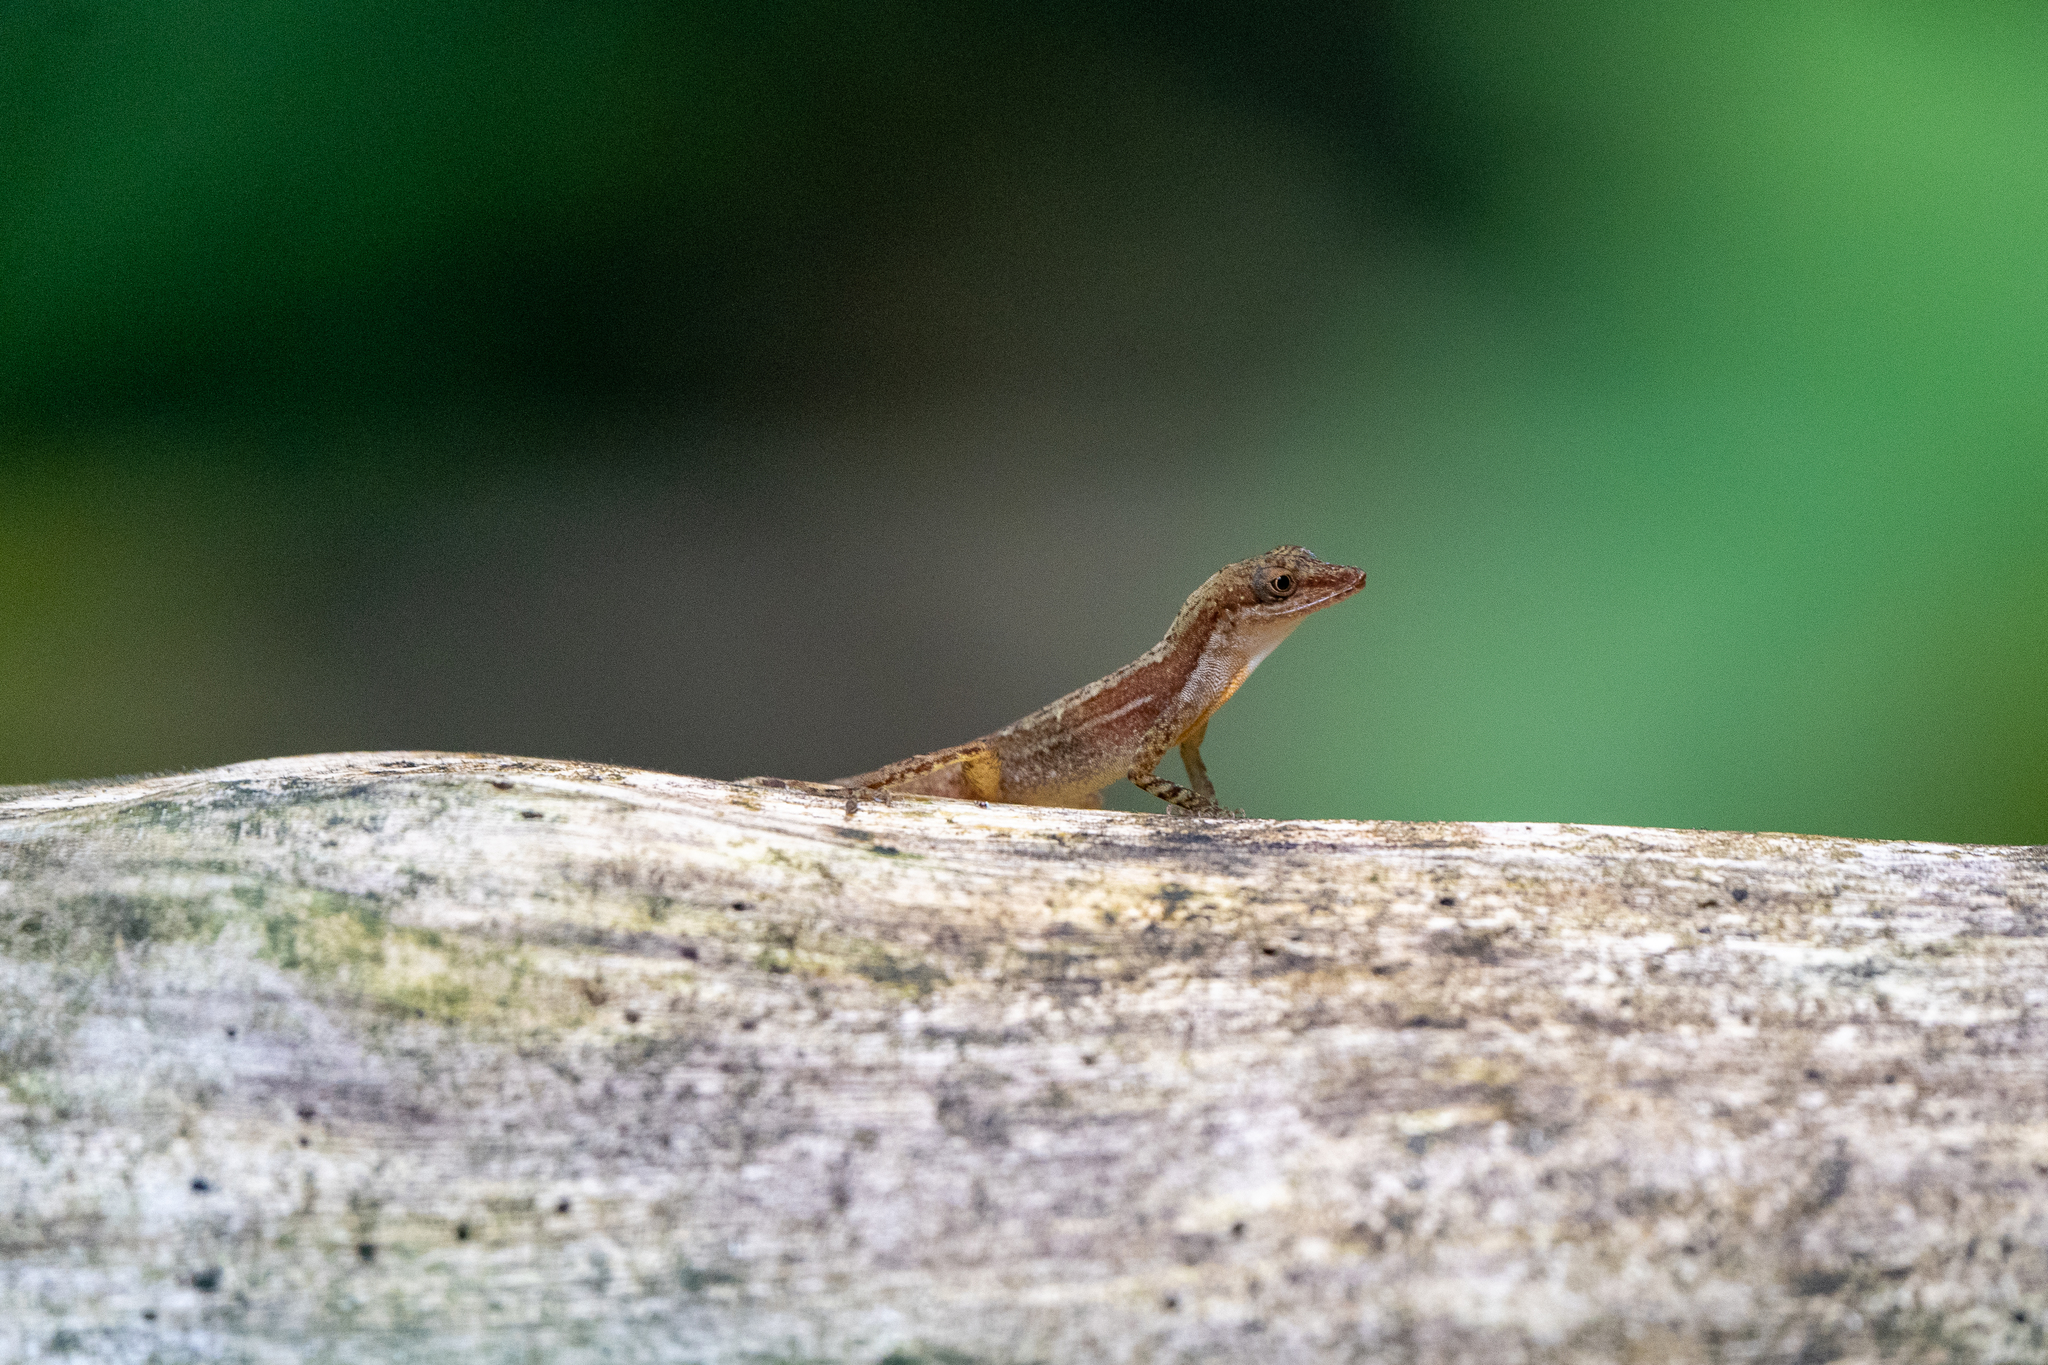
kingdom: Animalia
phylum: Chordata
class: Squamata
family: Dactyloidae
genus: Anolis
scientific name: Anolis apletophallus
